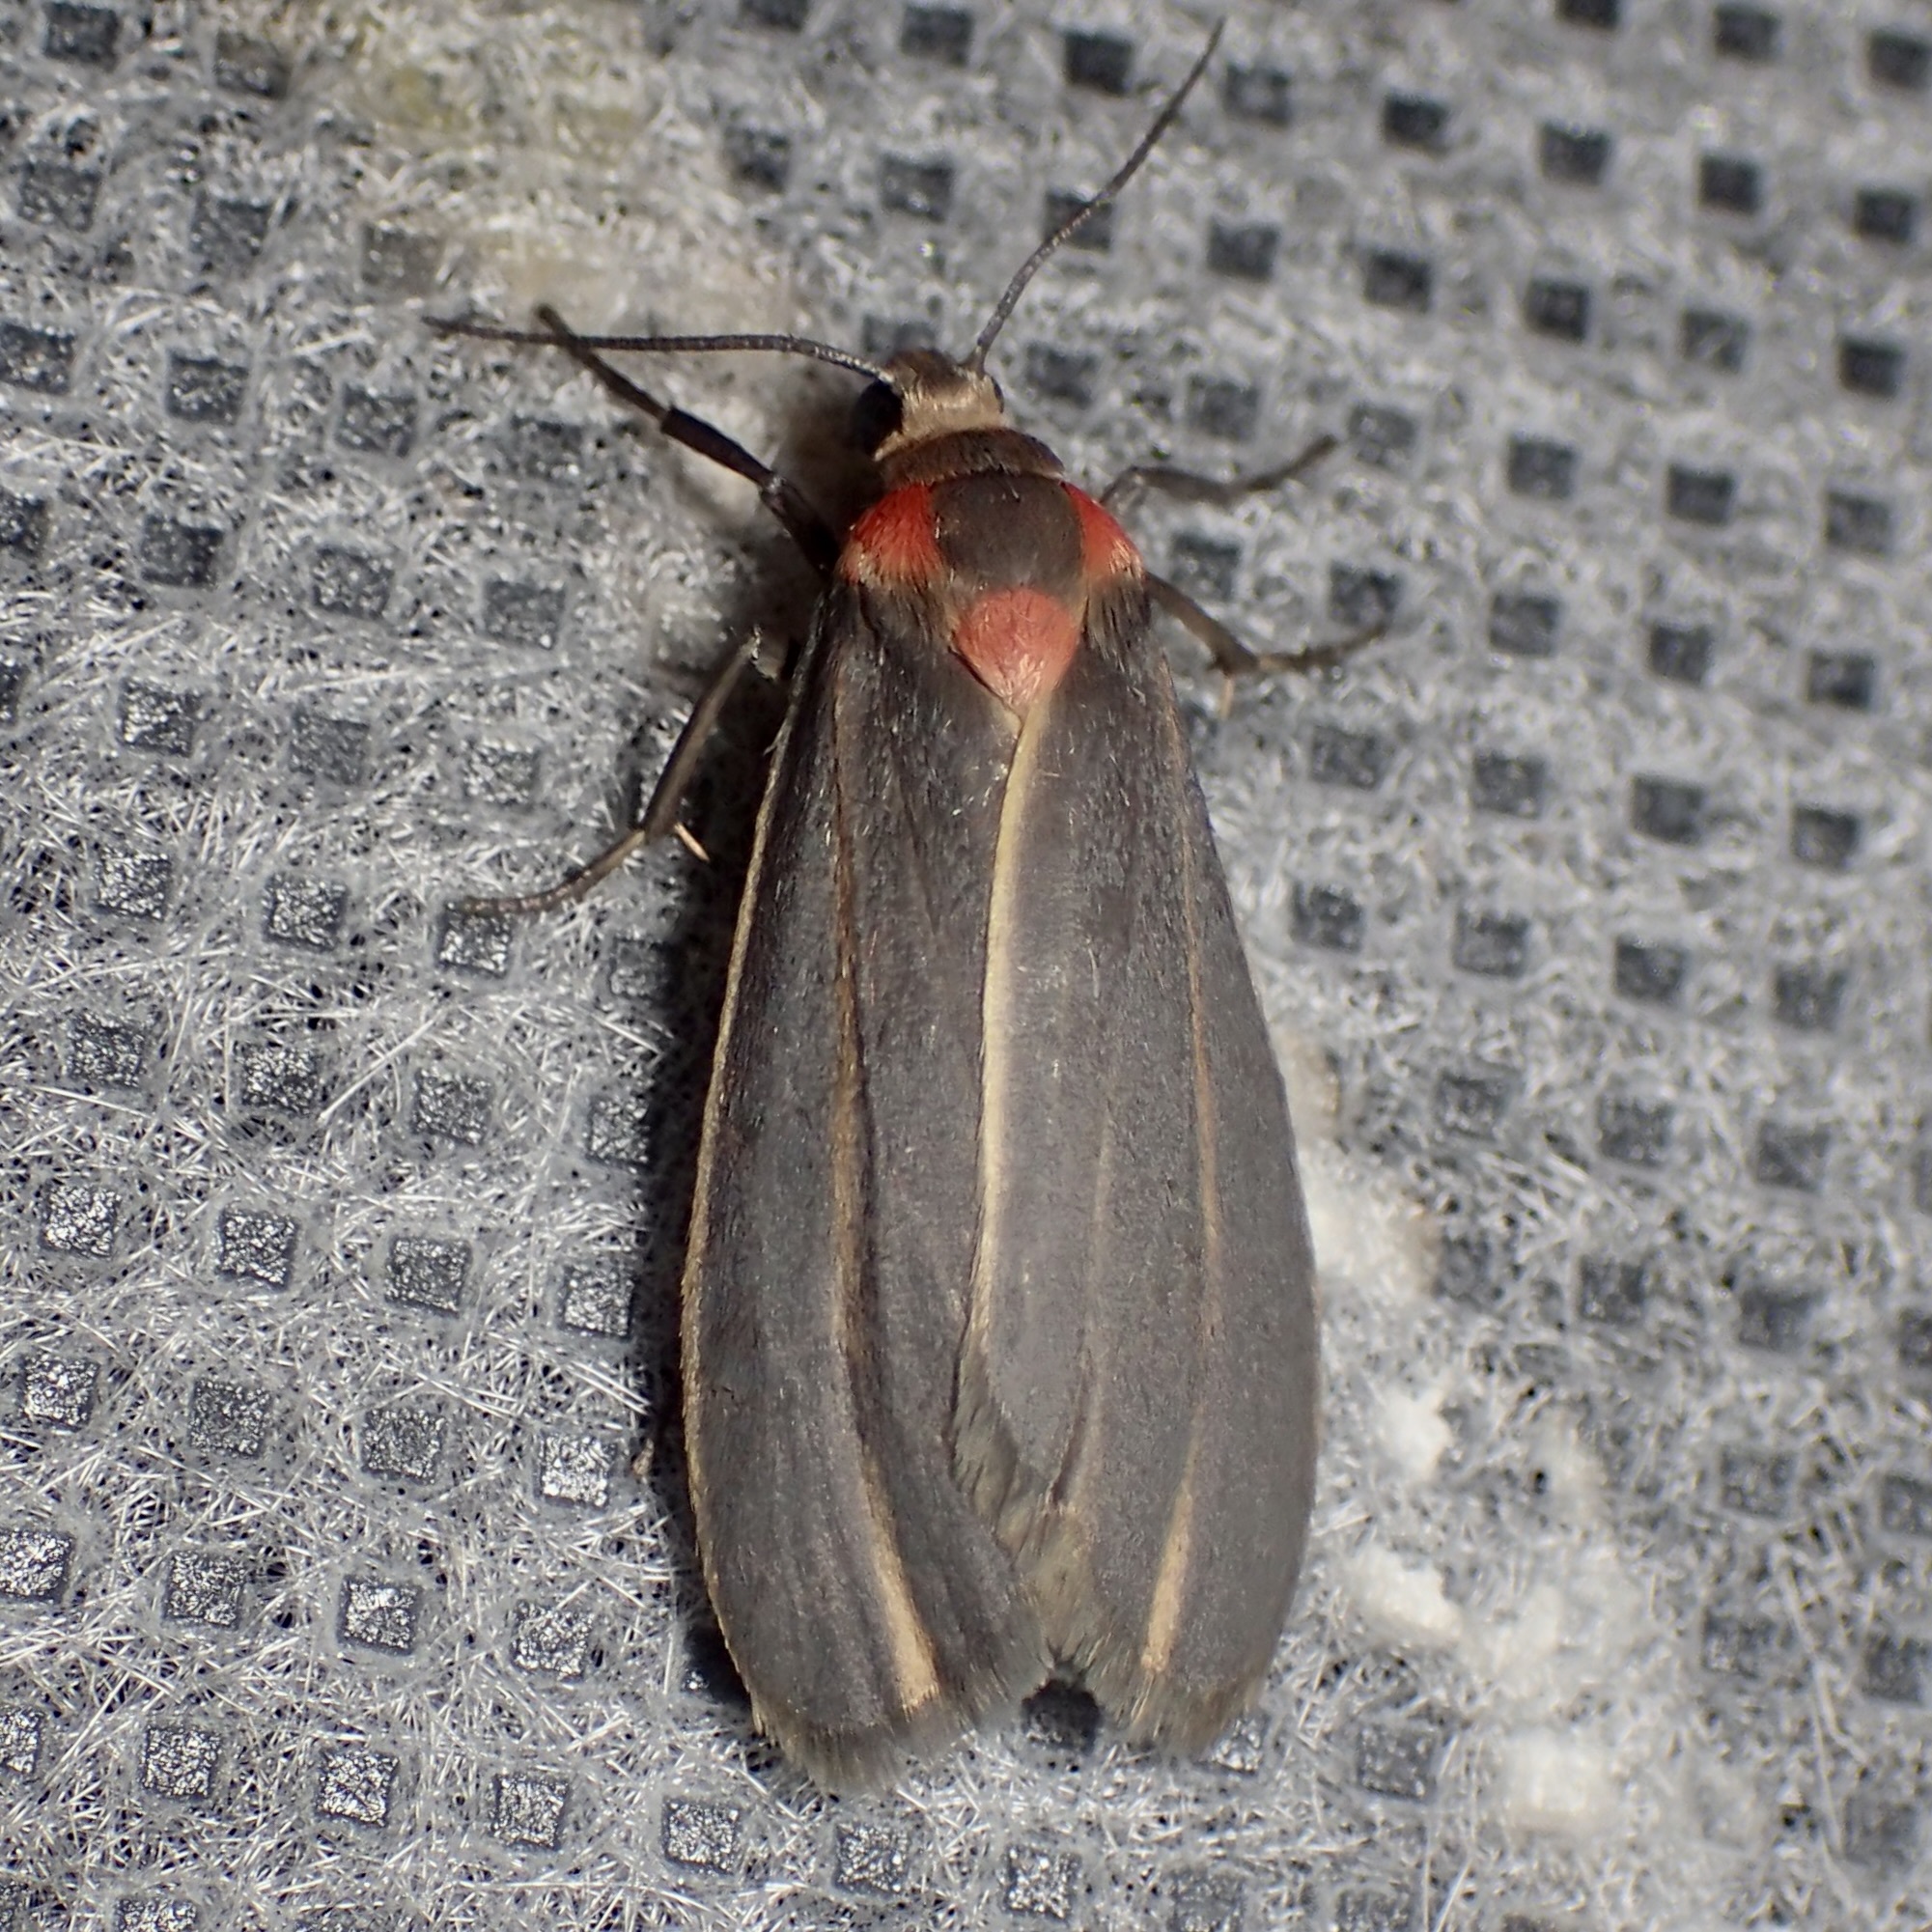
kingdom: Animalia
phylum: Arthropoda
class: Insecta
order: Lepidoptera
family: Erebidae
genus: Haematomis
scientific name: Haematomis uniformis
